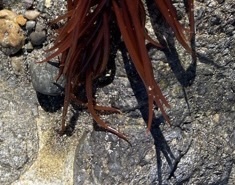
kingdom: Plantae
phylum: Rhodophyta
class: Florideophyceae
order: Gigartinales
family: Solieriaceae
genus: Sarcodiotheca
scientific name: Sarcodiotheca gaudichaudii
